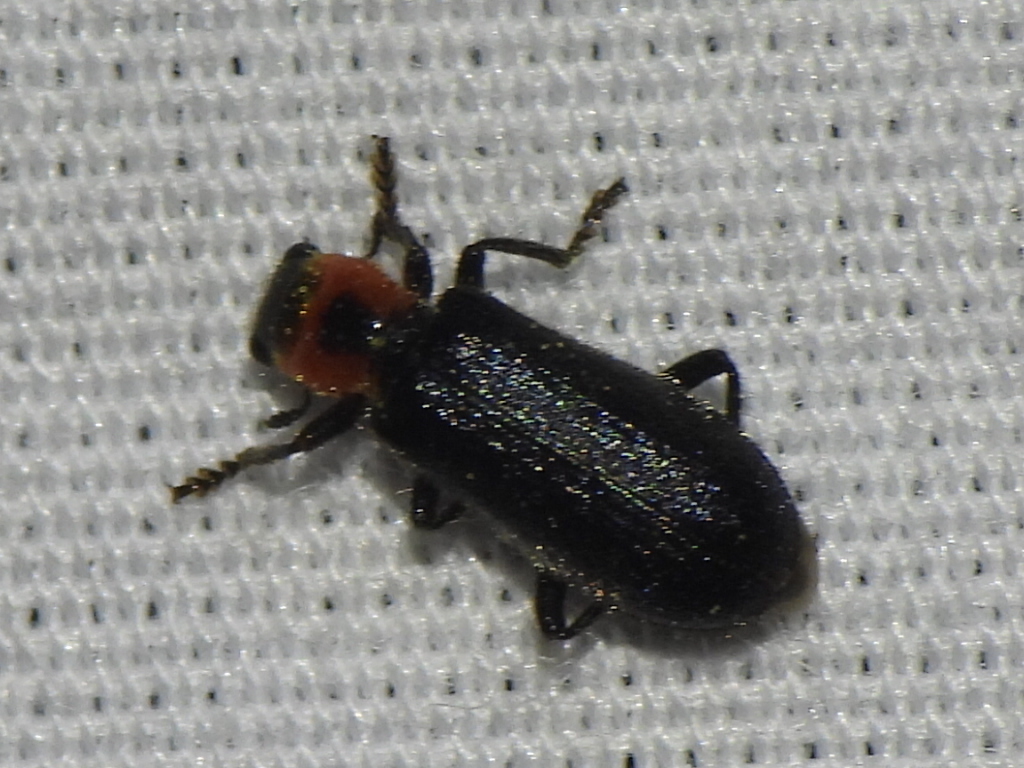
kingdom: Animalia
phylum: Arthropoda
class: Insecta
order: Coleoptera
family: Cleridae
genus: Placopterus
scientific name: Placopterus thoracicus
